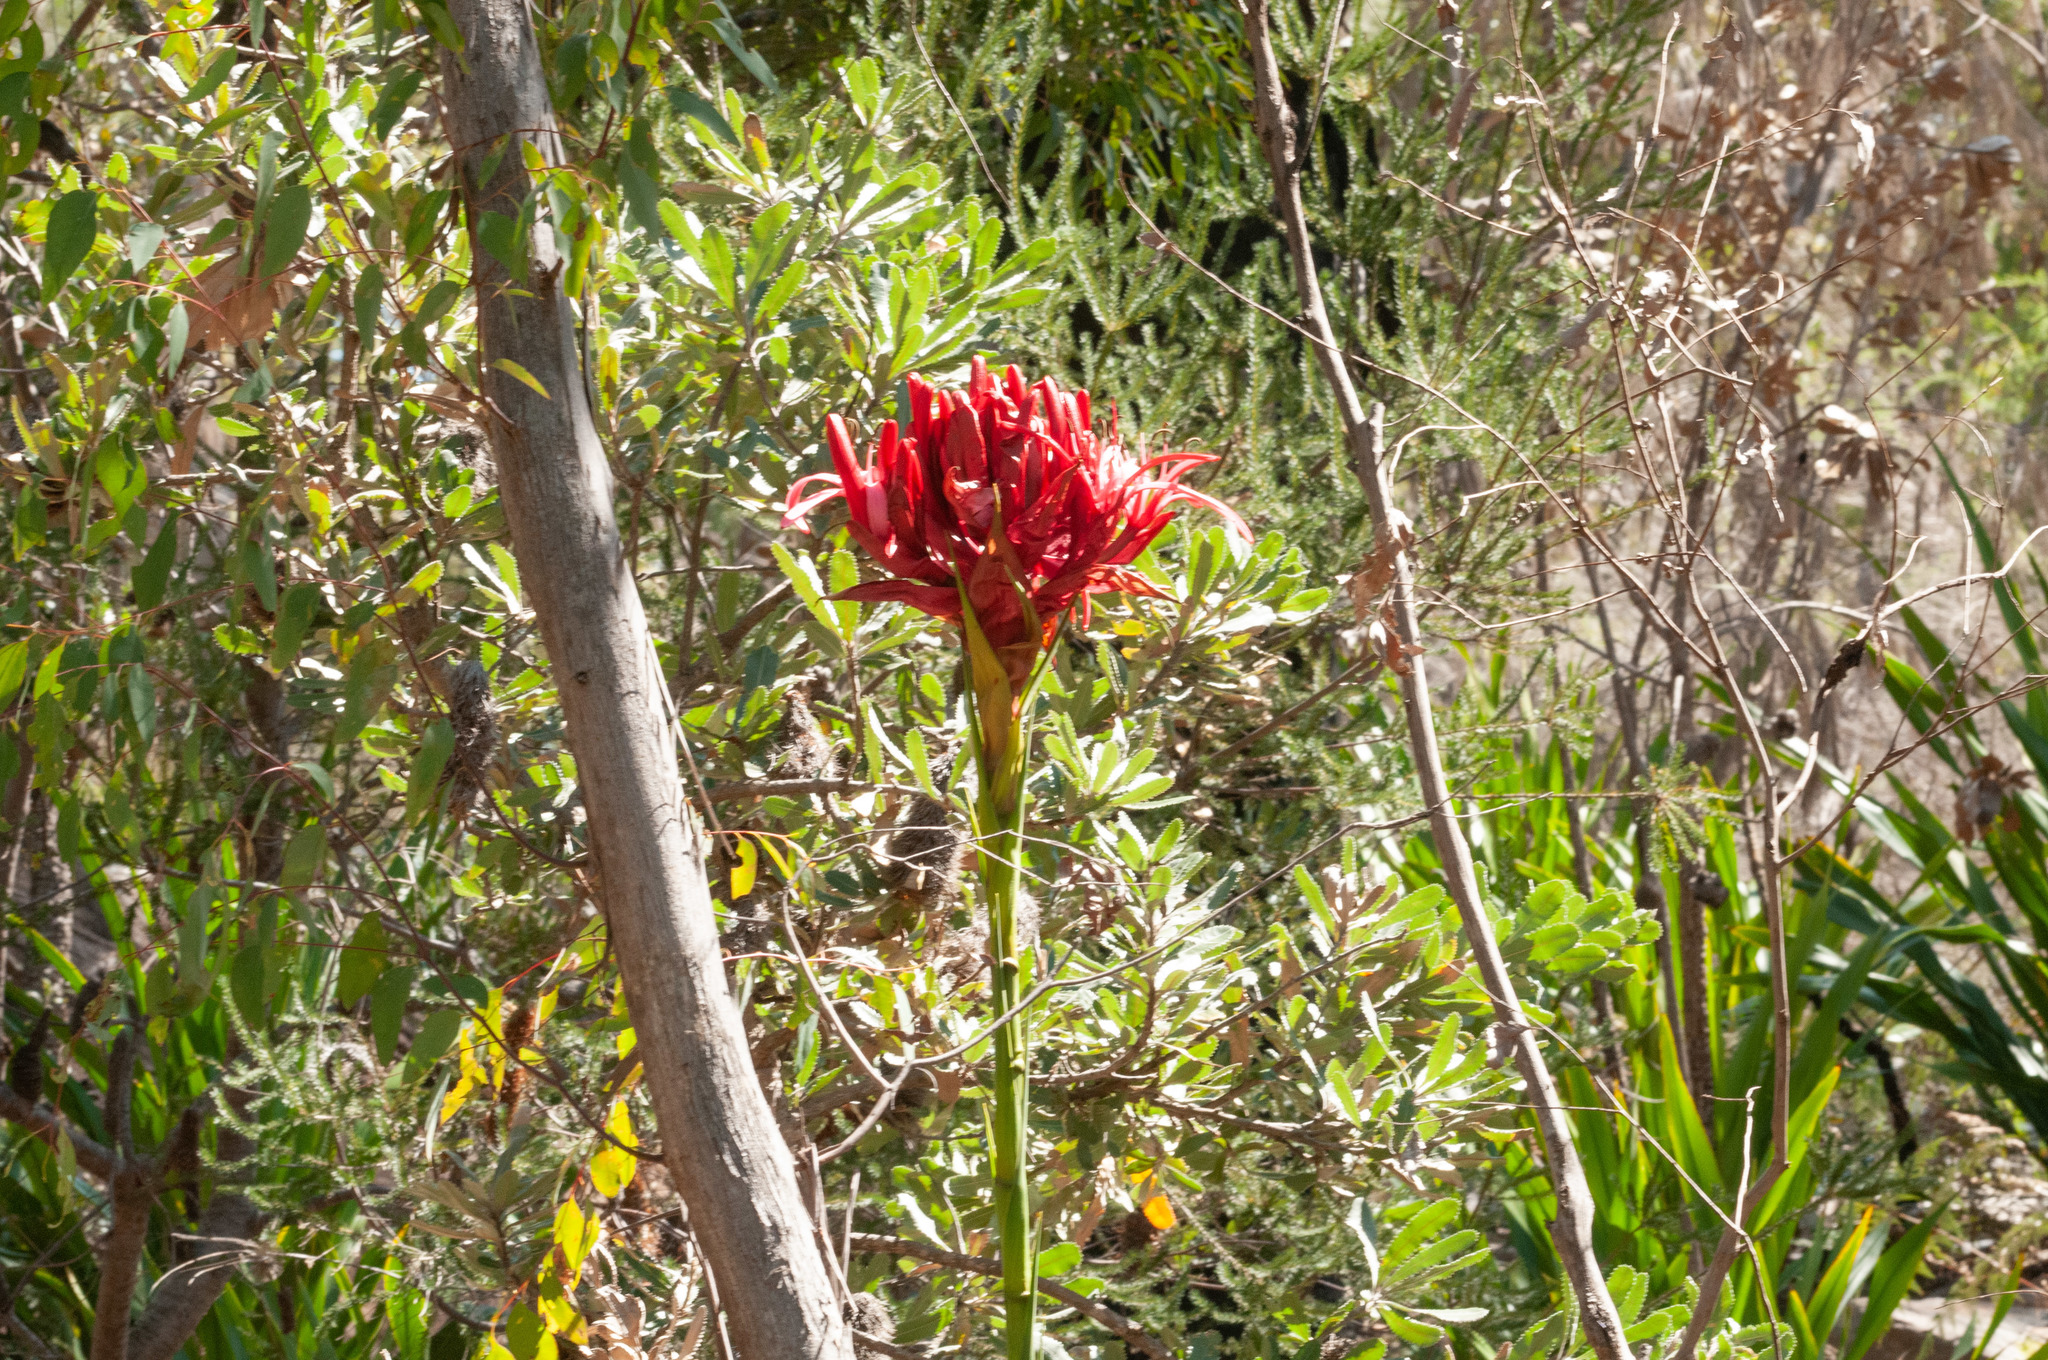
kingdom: Plantae
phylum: Tracheophyta
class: Liliopsida
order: Asparagales
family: Doryanthaceae
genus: Doryanthes
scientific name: Doryanthes excelsa
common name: Giant-lily
